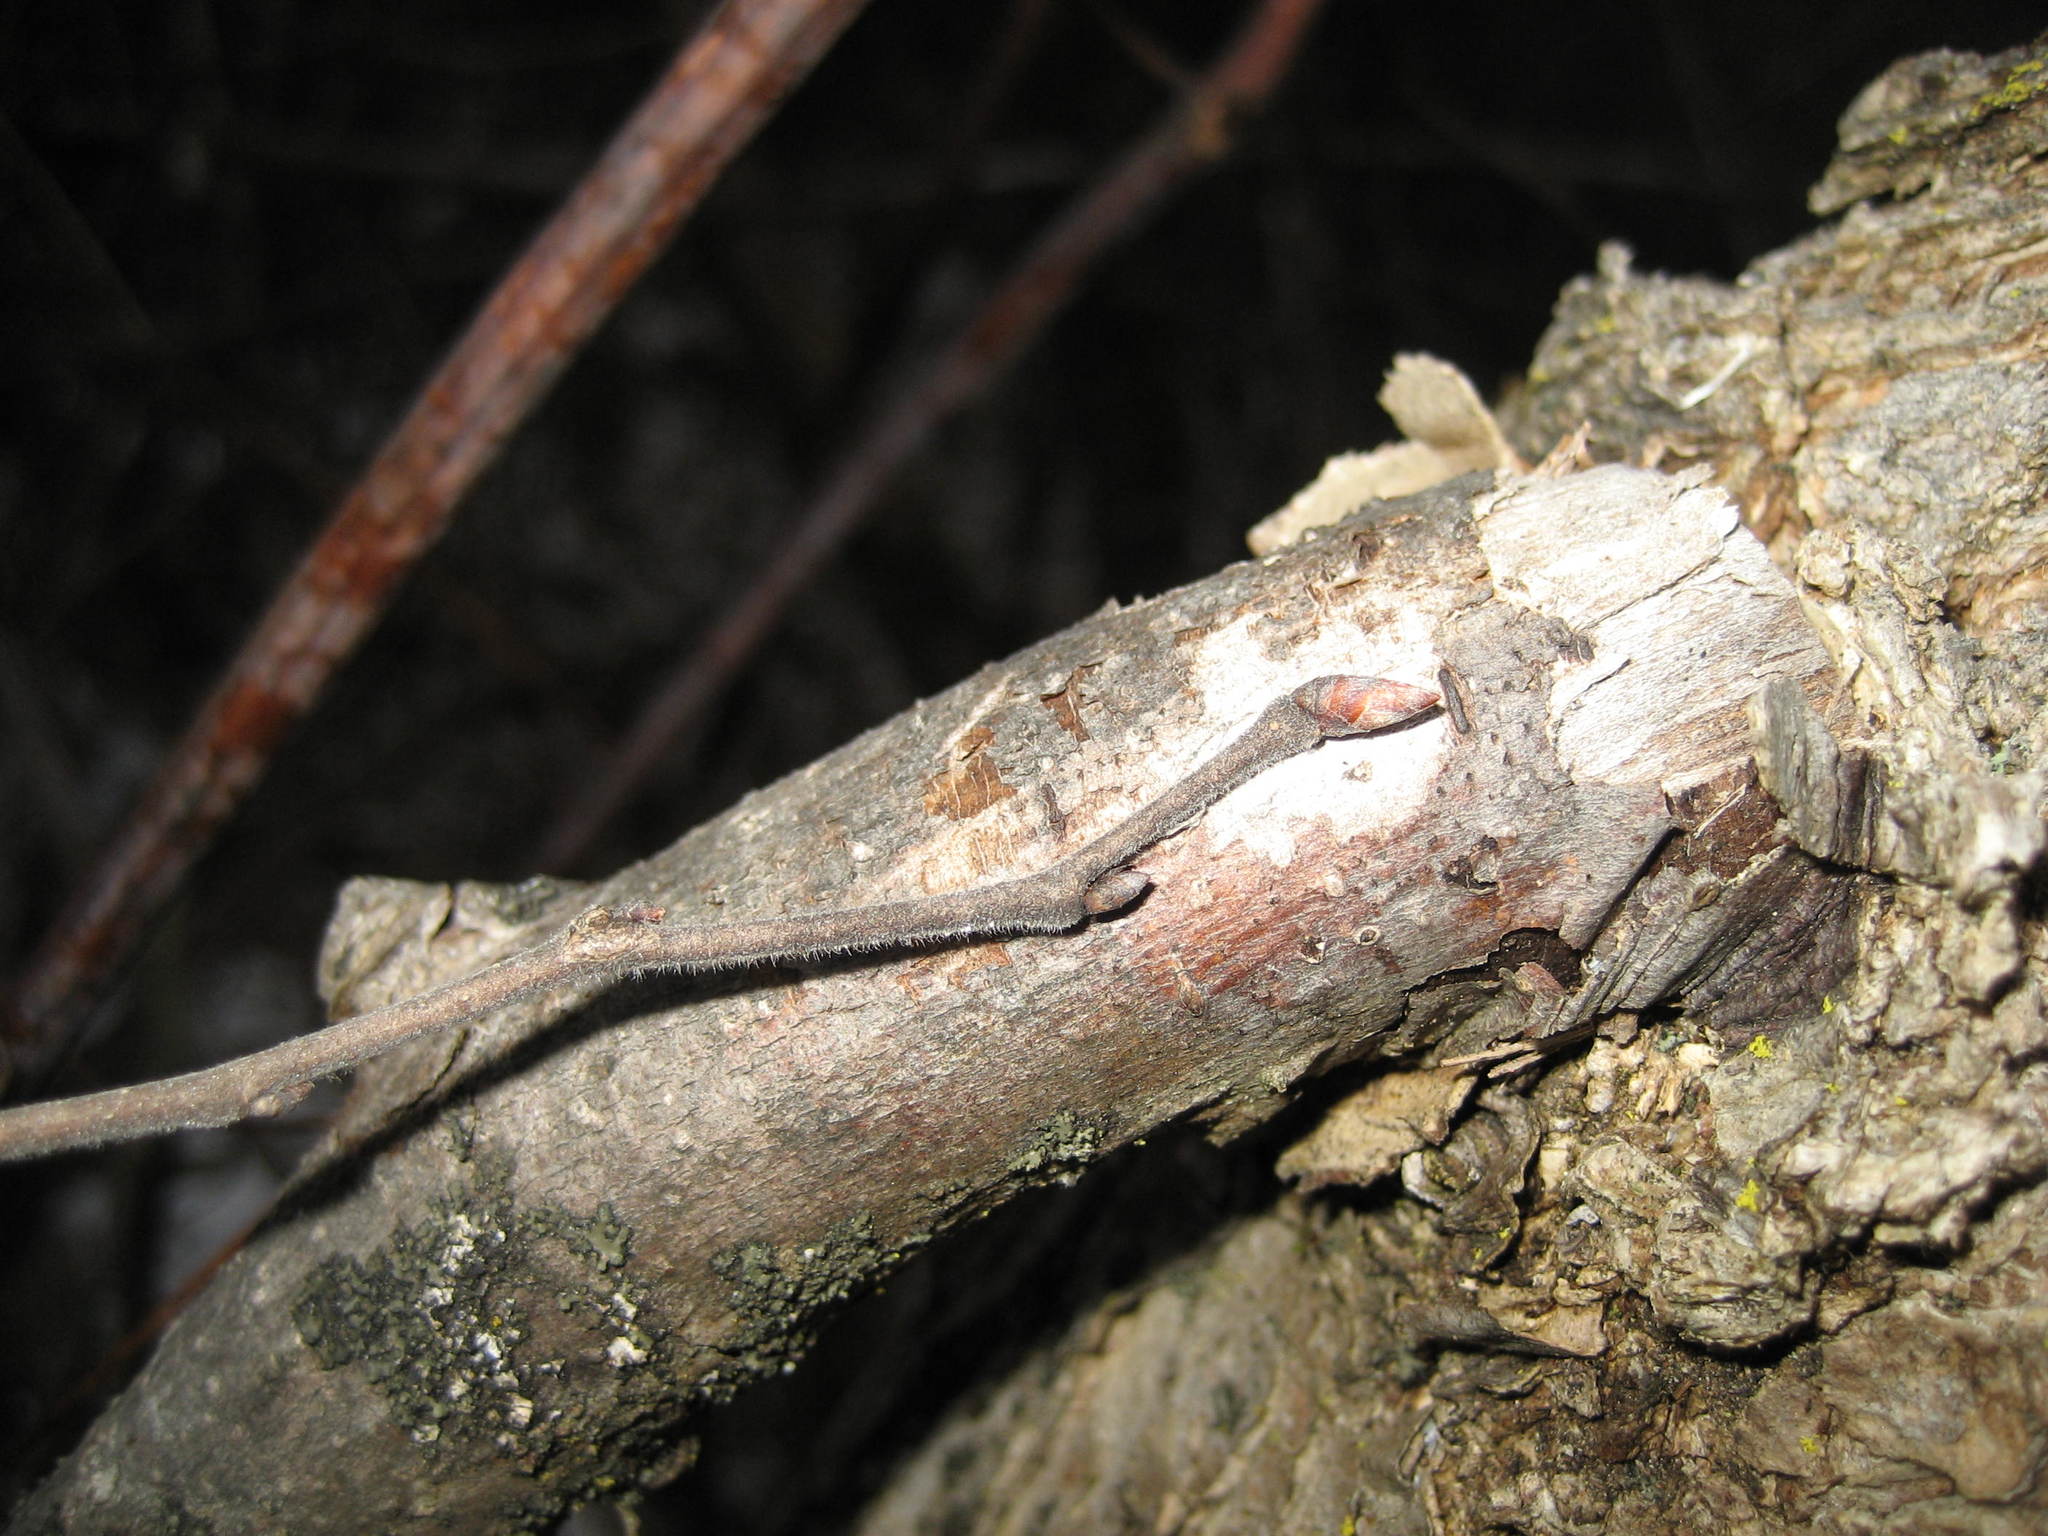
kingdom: Plantae
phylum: Tracheophyta
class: Magnoliopsida
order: Rosales
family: Ulmaceae
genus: Ulmus
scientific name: Ulmus americana
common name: American elm
